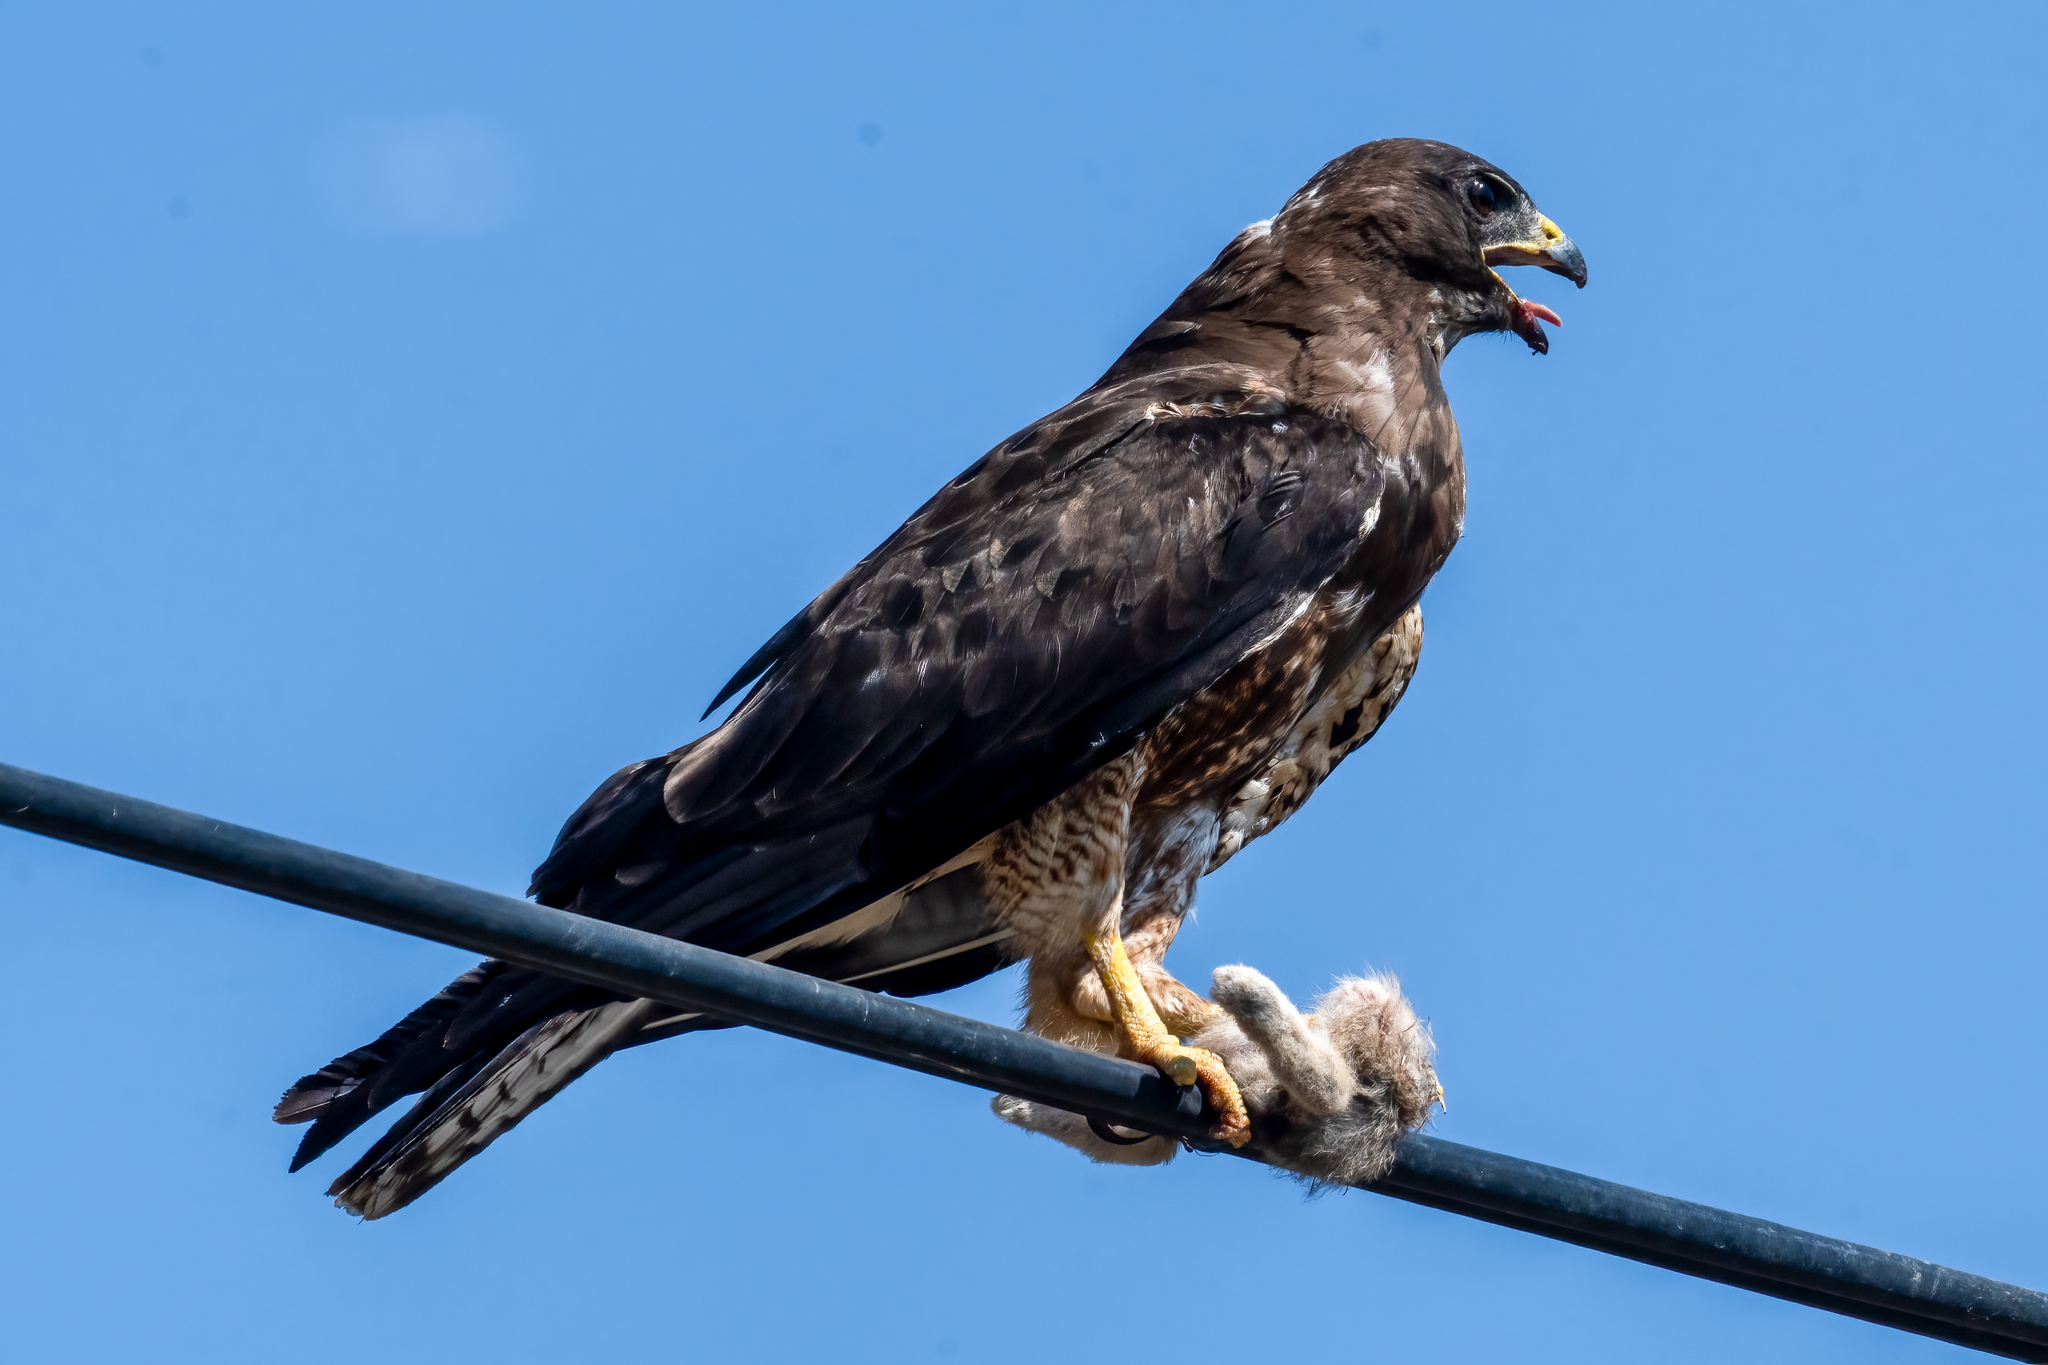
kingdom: Animalia
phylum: Chordata
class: Aves
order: Accipitriformes
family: Accipitridae
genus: Buteo
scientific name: Buteo swainsoni
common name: Swainson's hawk
